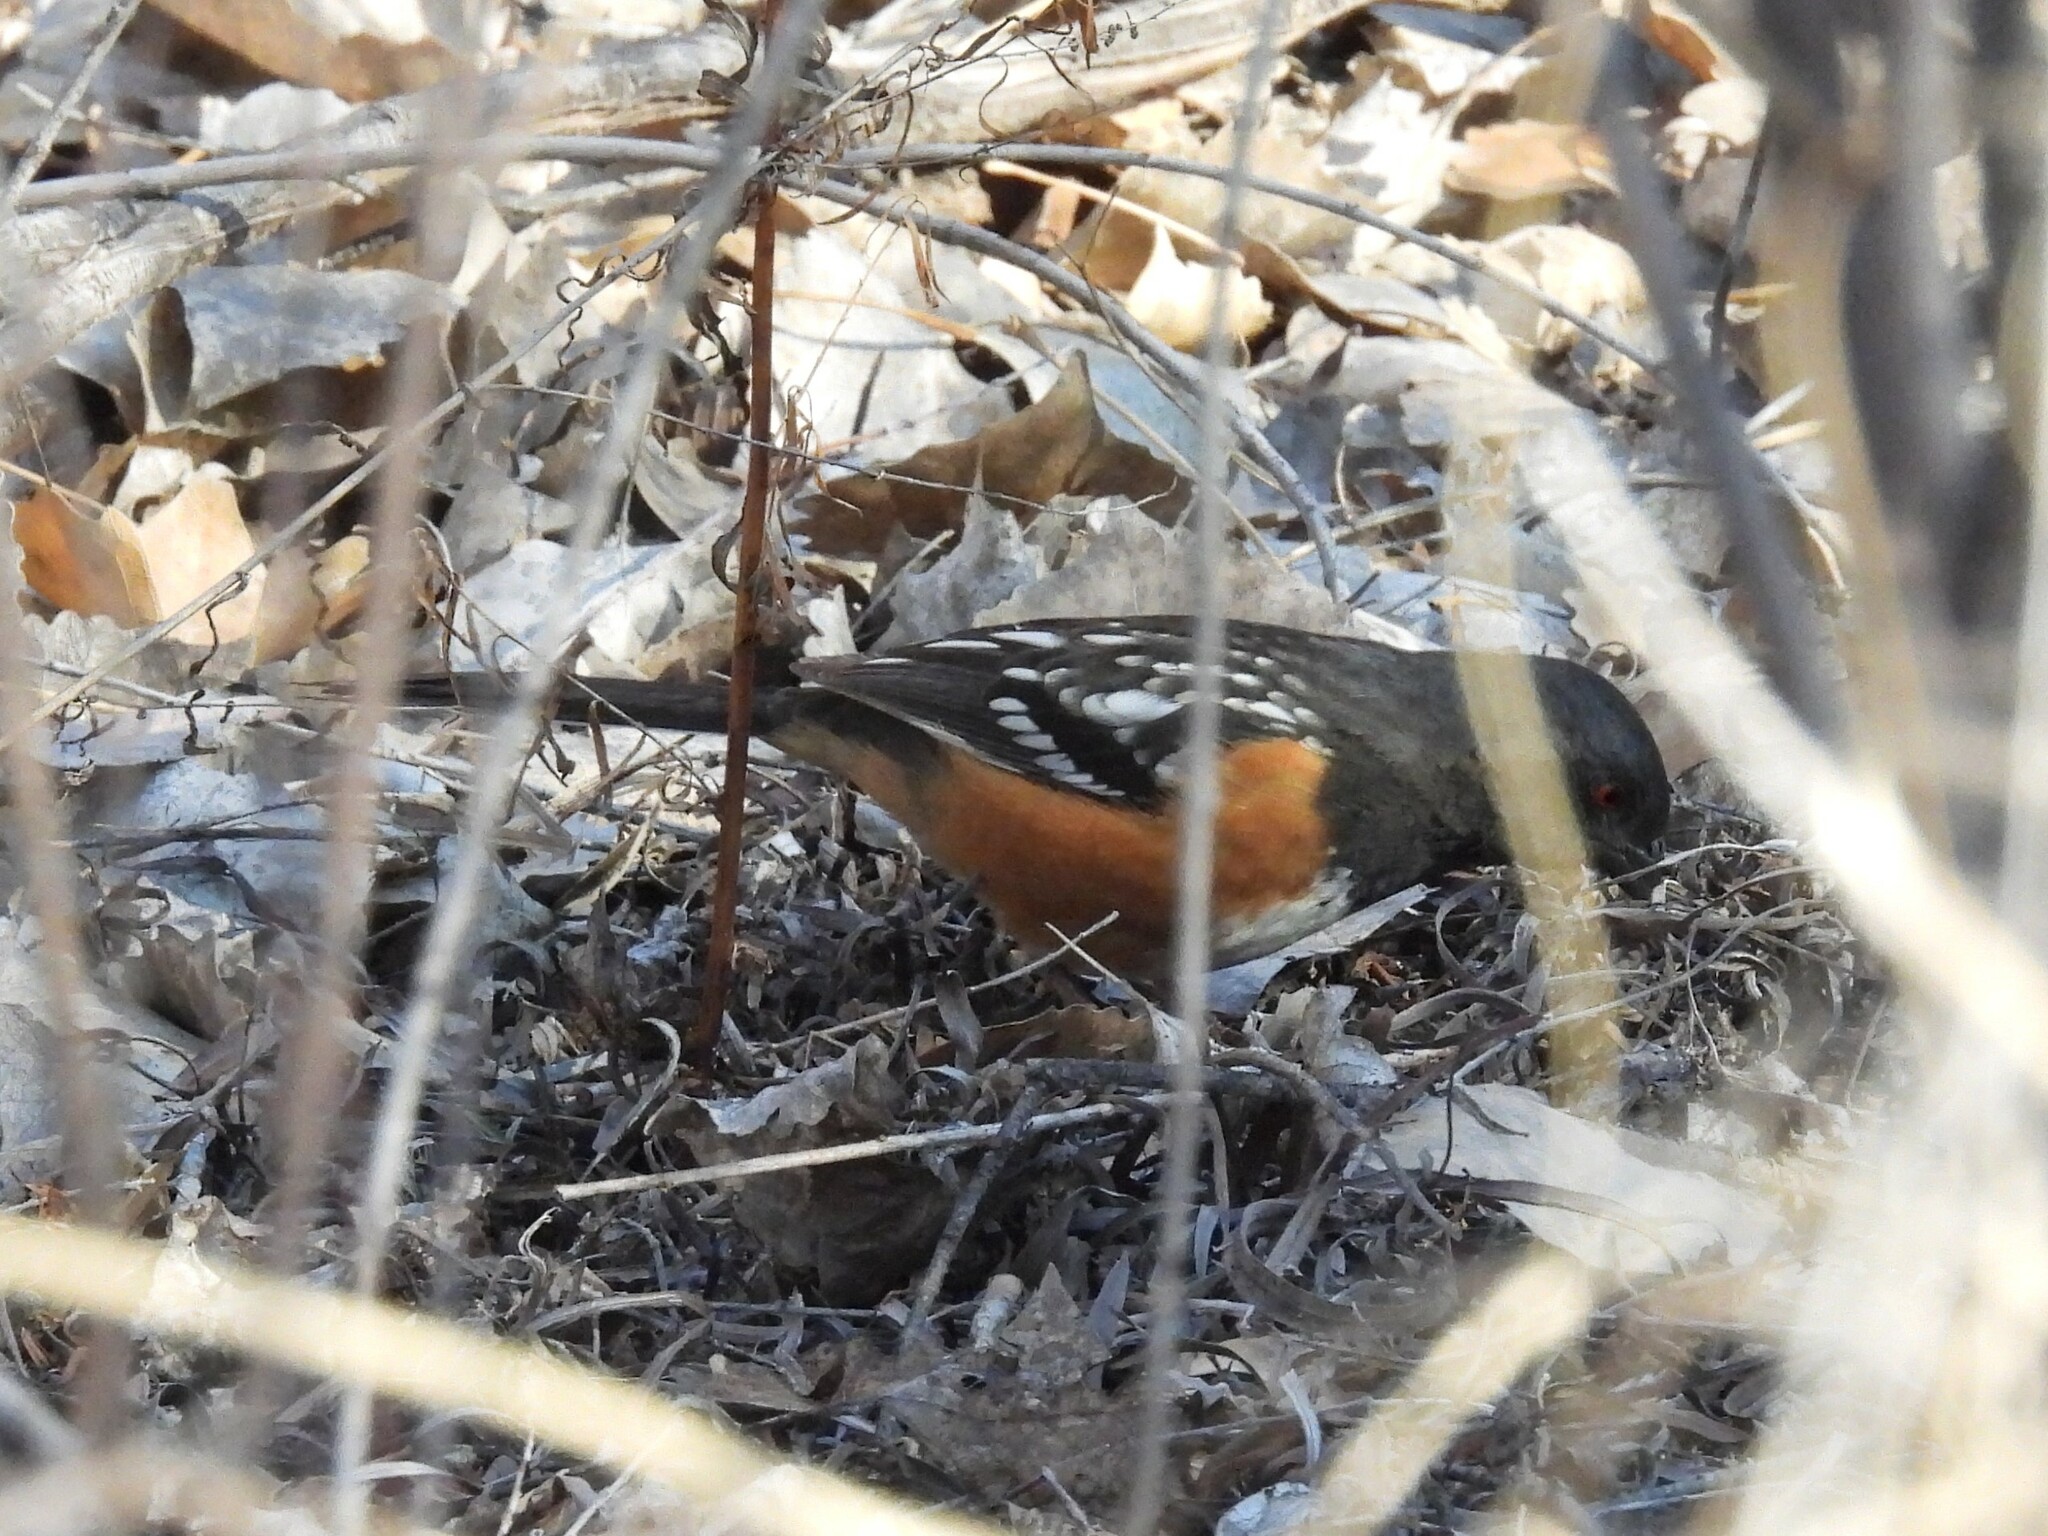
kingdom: Animalia
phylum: Chordata
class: Aves
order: Passeriformes
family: Passerellidae
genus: Pipilo
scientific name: Pipilo maculatus
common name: Spotted towhee
